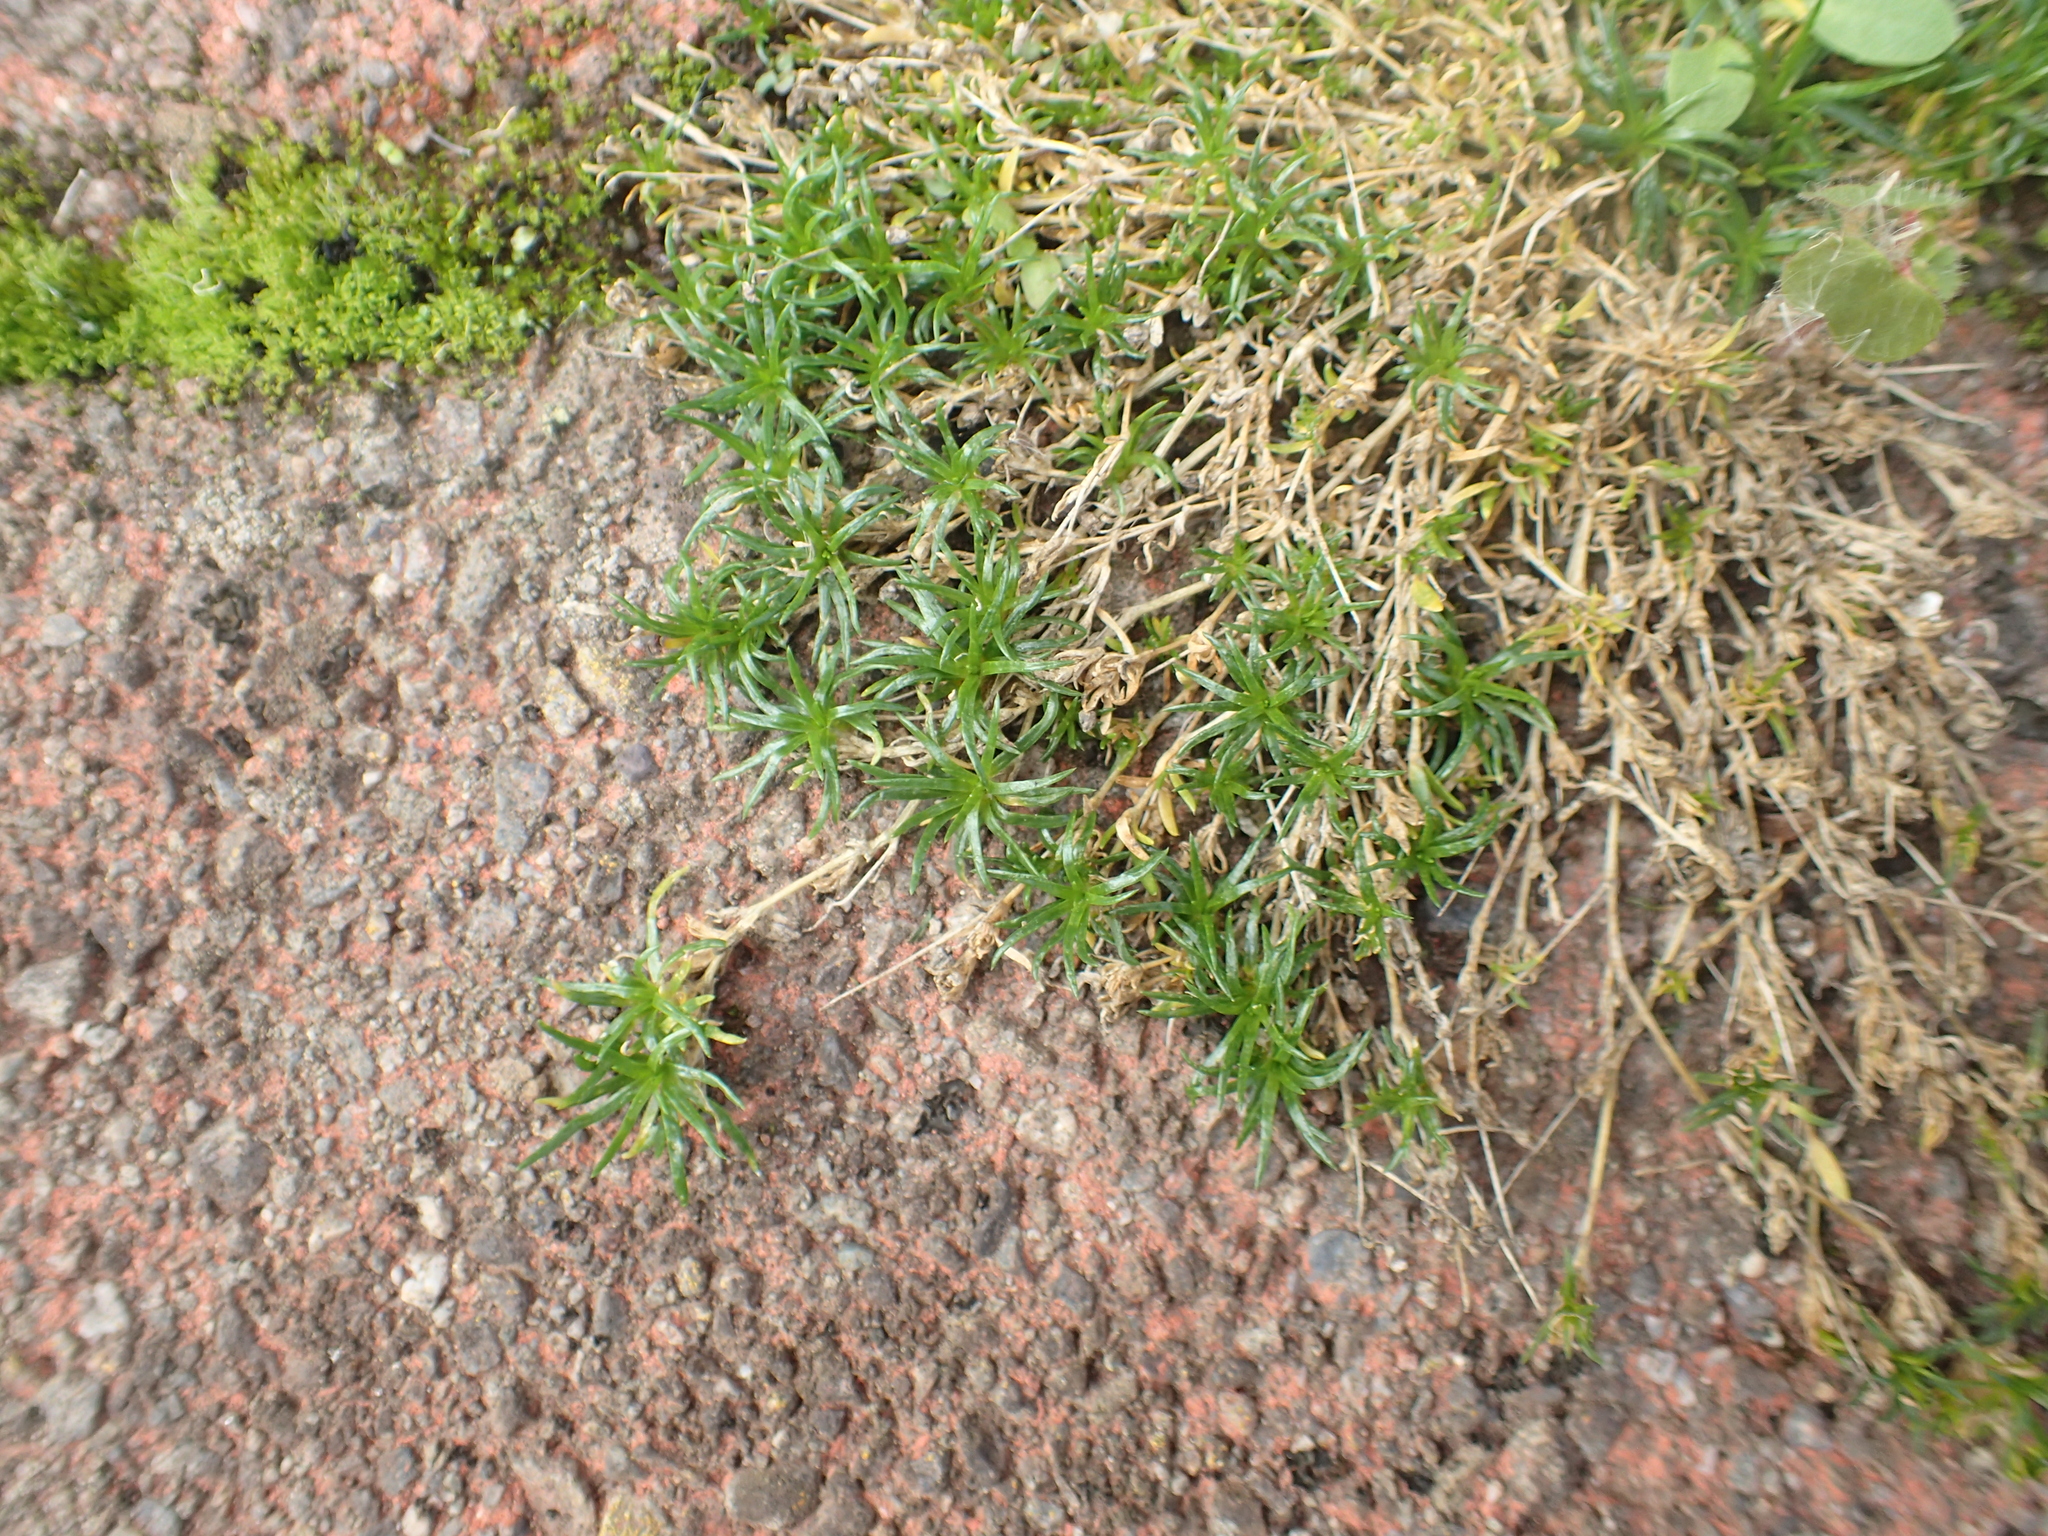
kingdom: Plantae
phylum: Tracheophyta
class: Magnoliopsida
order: Caryophyllales
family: Caryophyllaceae
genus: Sagina
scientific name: Sagina procumbens
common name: Procumbent pearlwort
